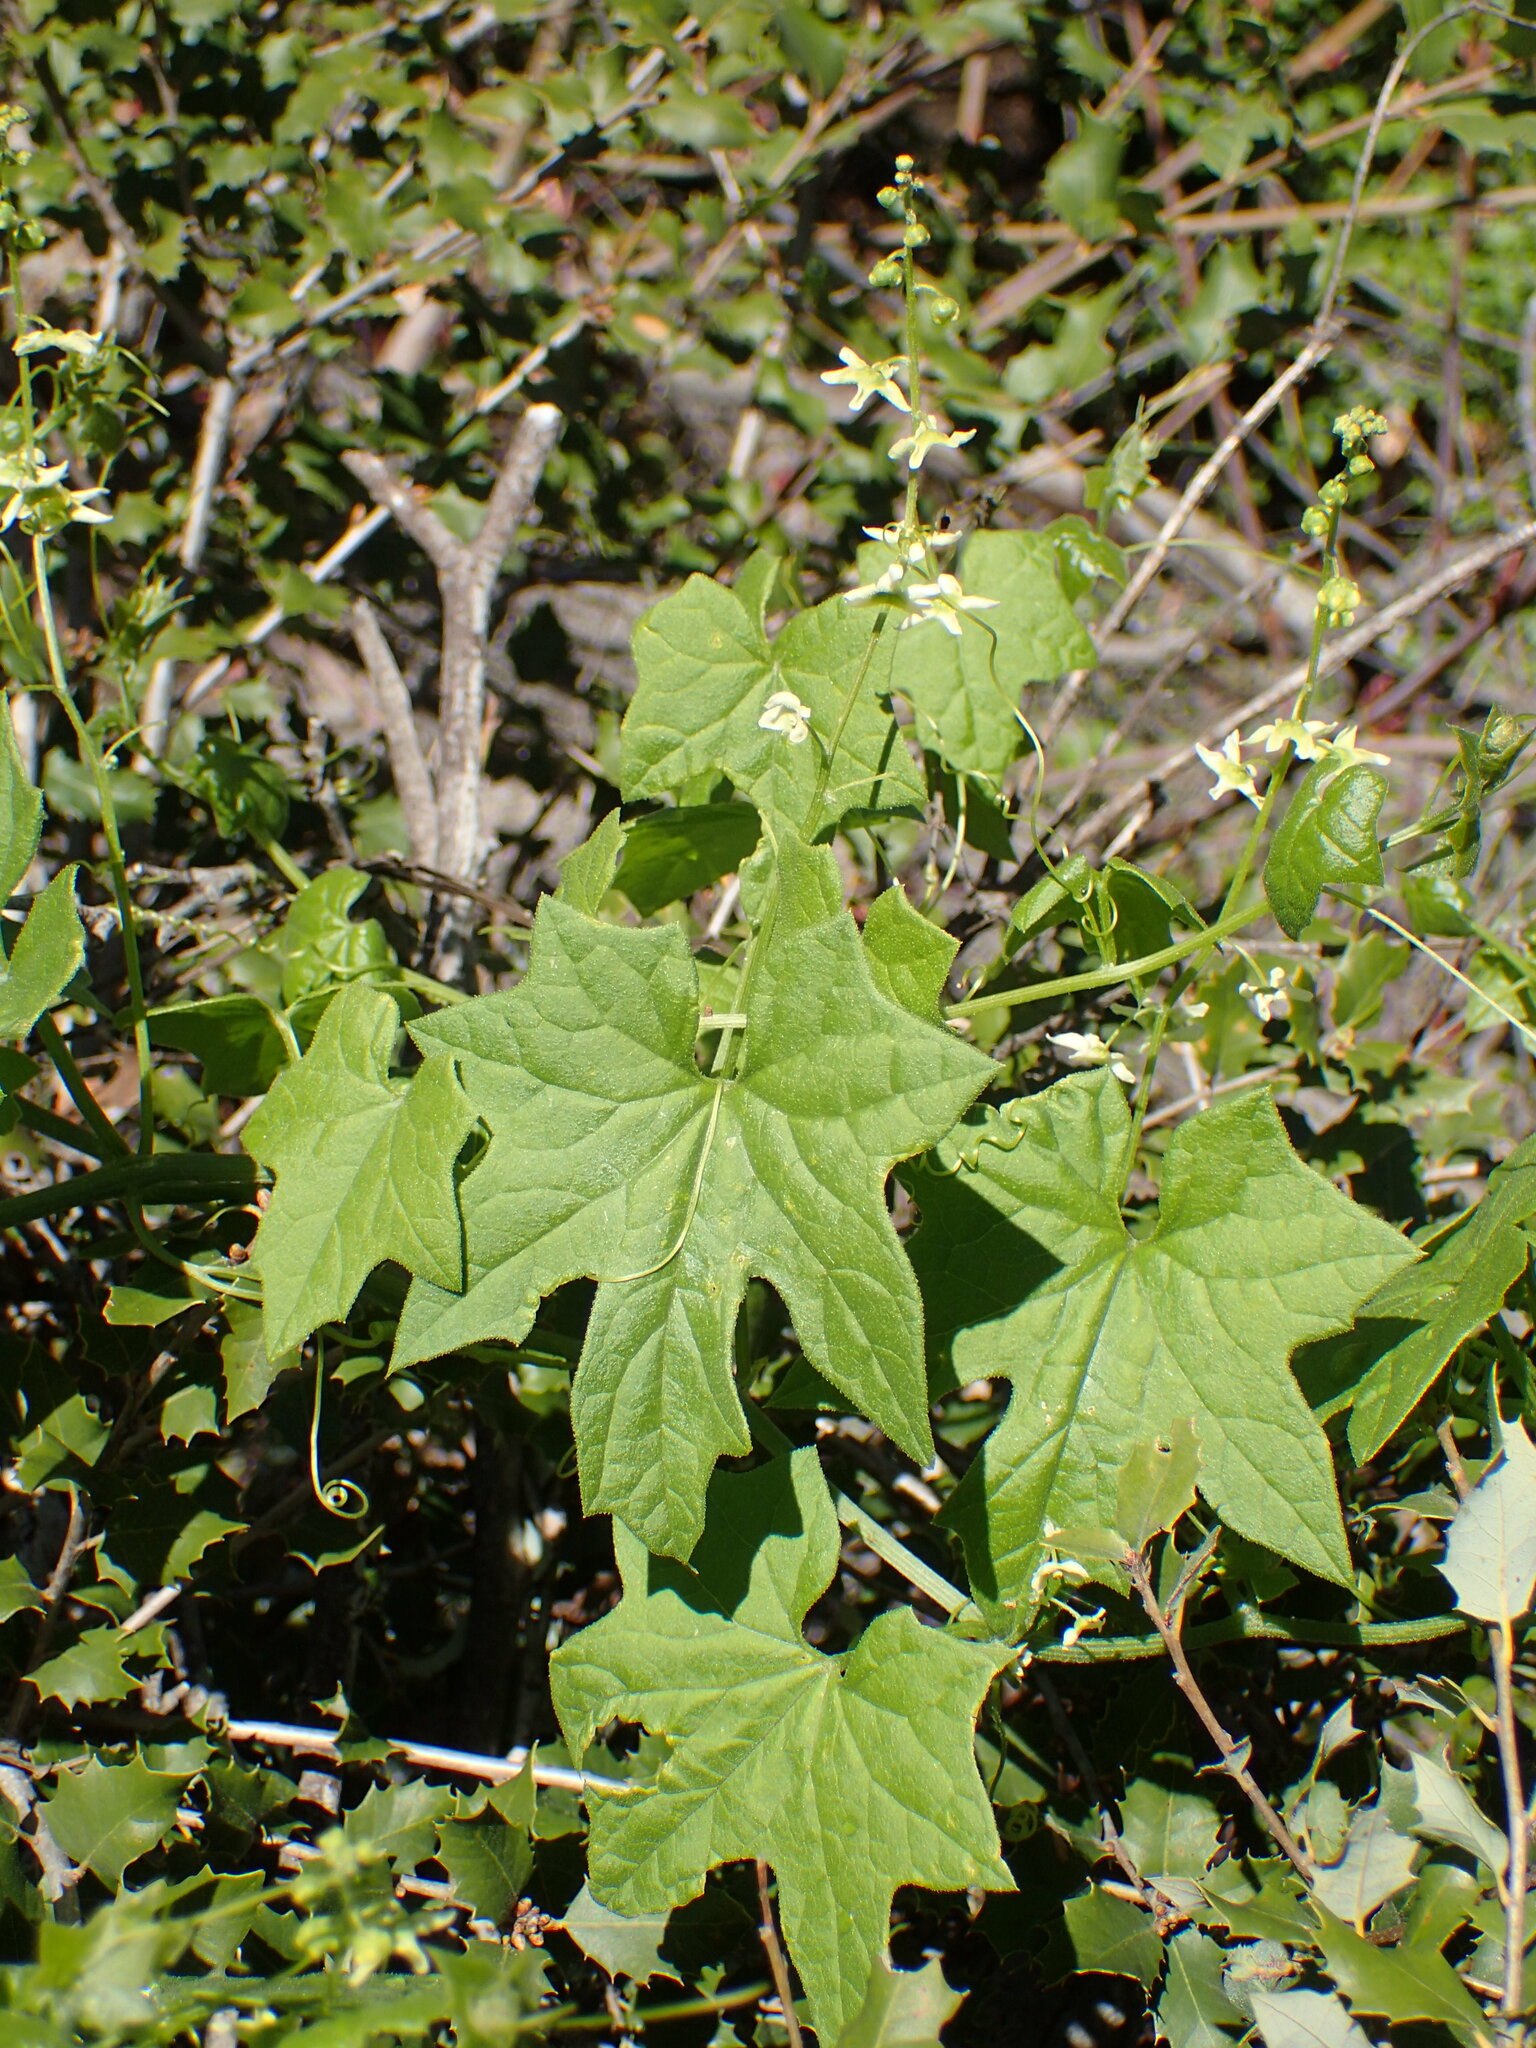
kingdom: Plantae
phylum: Tracheophyta
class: Magnoliopsida
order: Cucurbitales
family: Cucurbitaceae
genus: Marah
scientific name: Marah macrocarpa
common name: Cucamonga manroot
